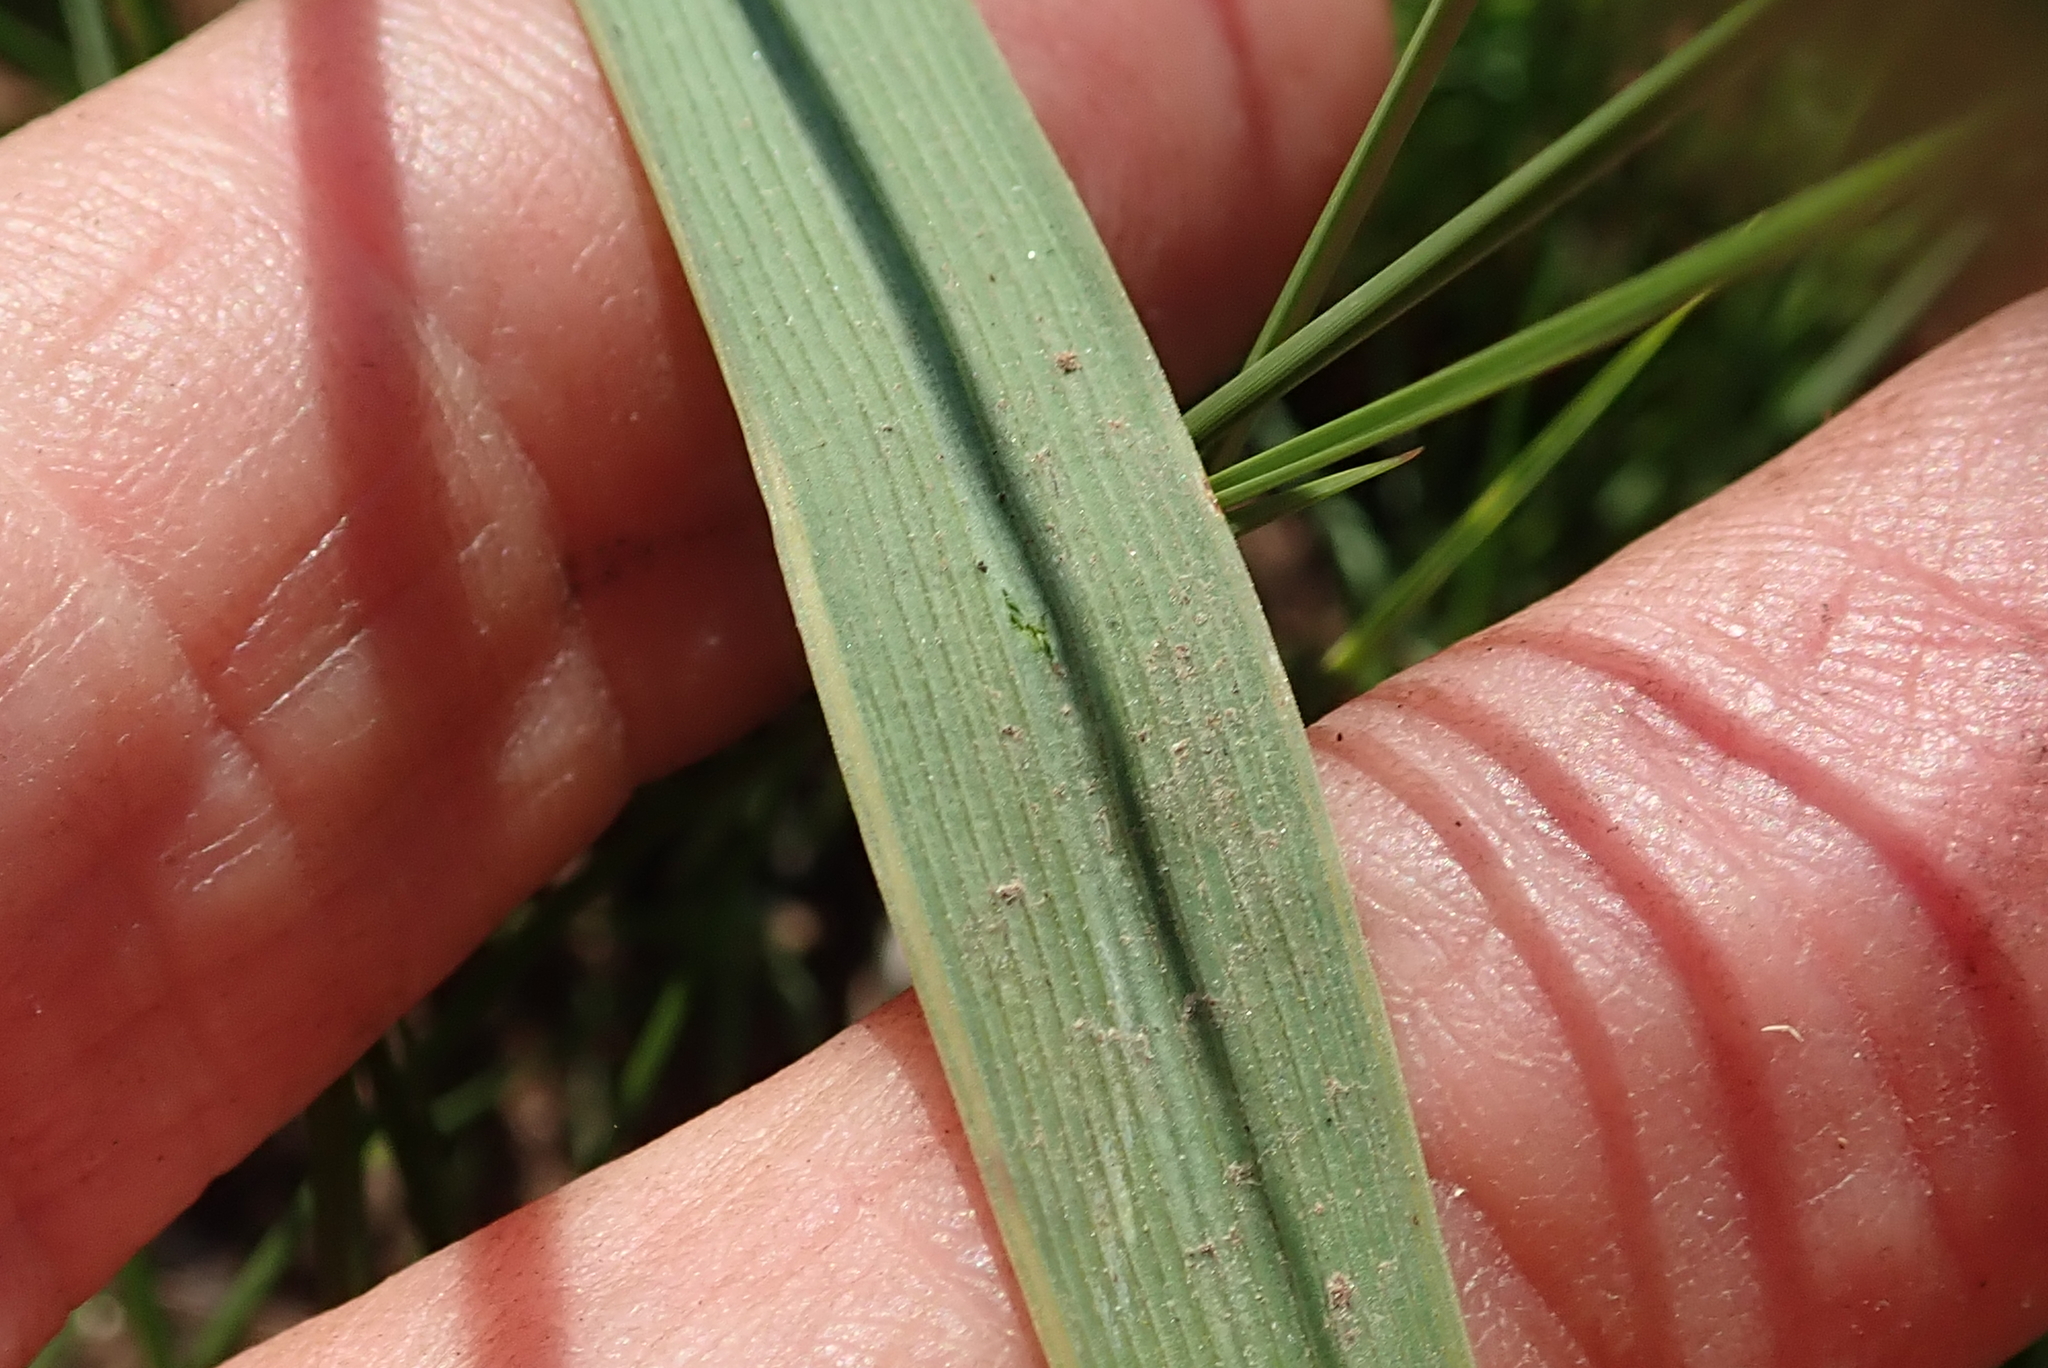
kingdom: Plantae
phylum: Tracheophyta
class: Liliopsida
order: Asparagales
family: Asparagaceae
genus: Chlorophytum
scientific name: Chlorophytum cooperi
